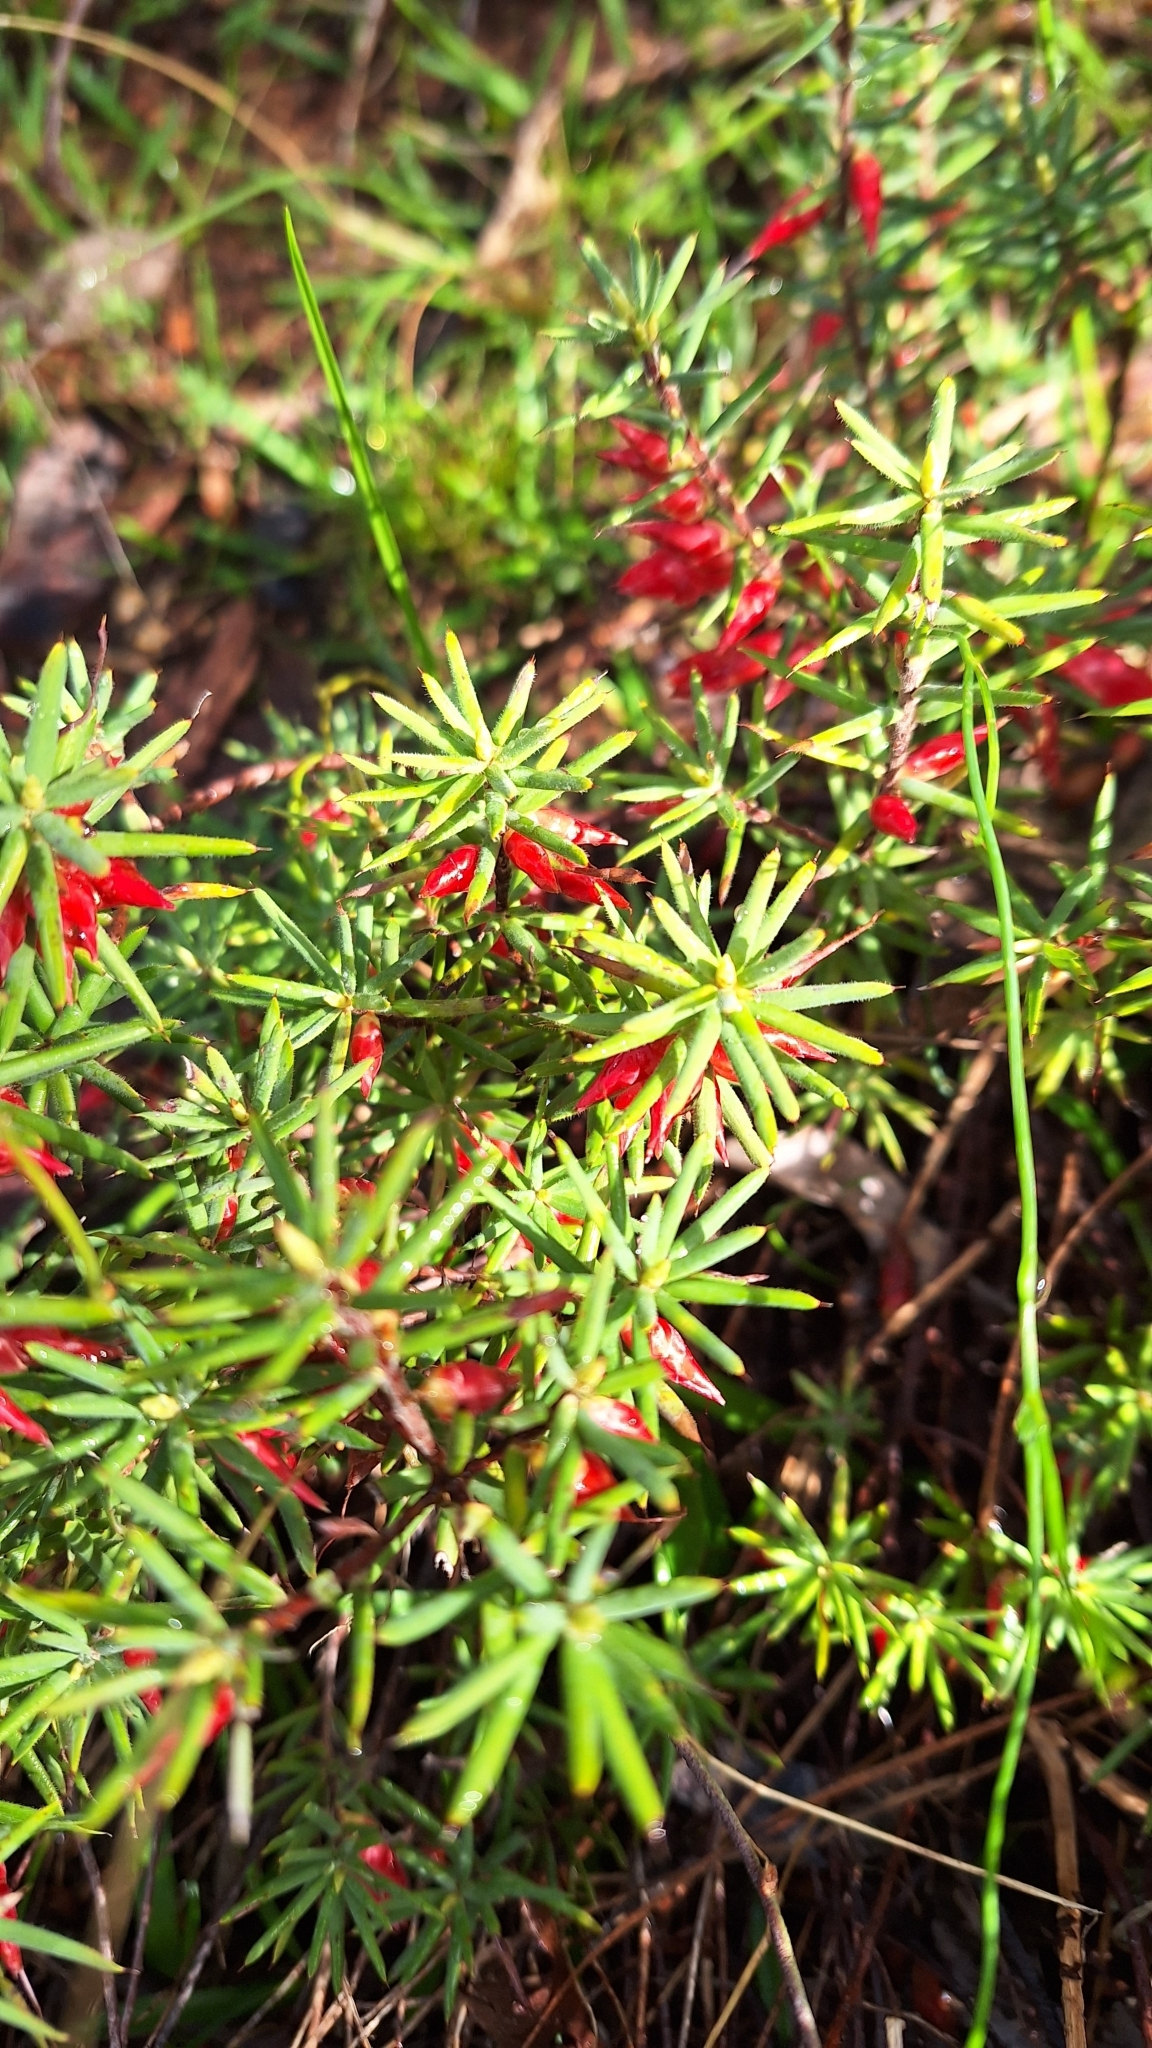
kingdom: Plantae
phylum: Tracheophyta
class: Magnoliopsida
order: Ericales
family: Ericaceae
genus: Stenanthera
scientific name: Stenanthera conostephioides
